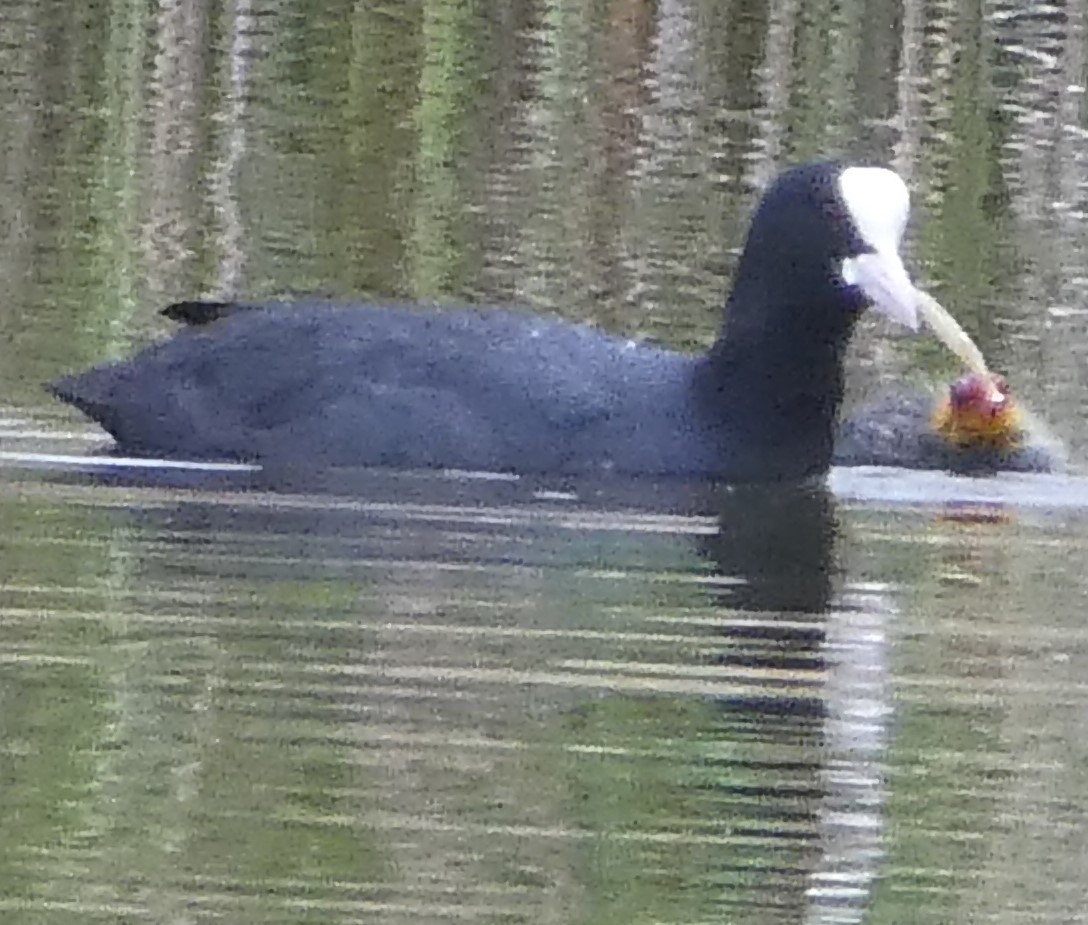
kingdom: Animalia
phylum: Chordata
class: Aves
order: Gruiformes
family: Rallidae
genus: Fulica
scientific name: Fulica atra
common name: Eurasian coot
